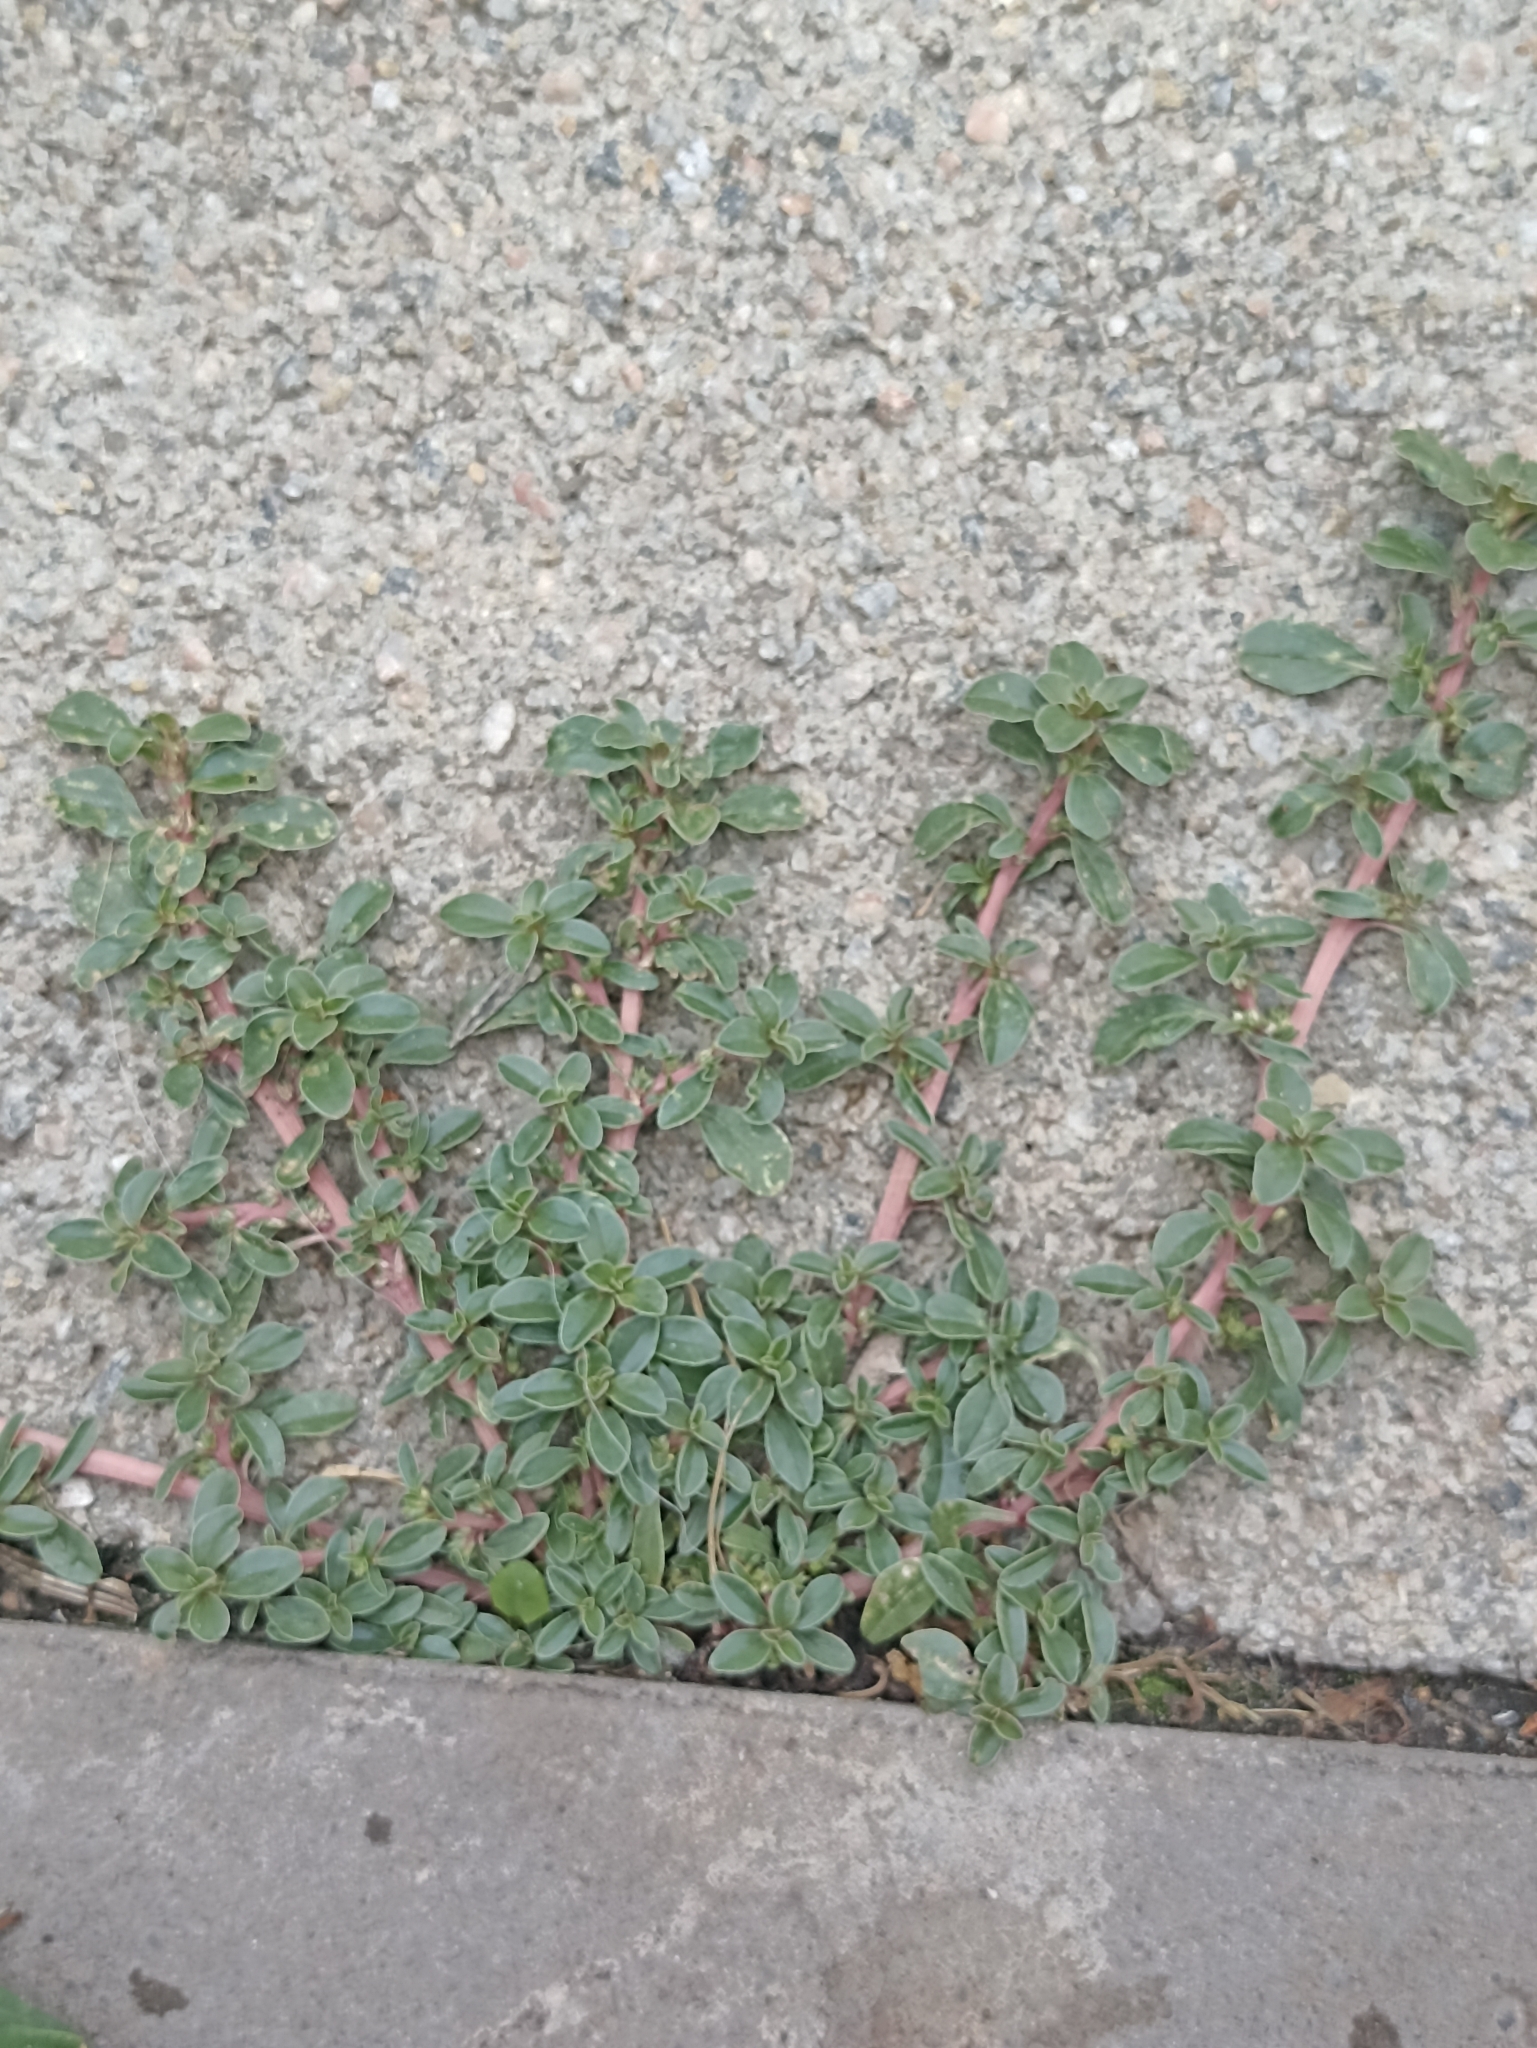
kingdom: Plantae
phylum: Tracheophyta
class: Magnoliopsida
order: Caryophyllales
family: Amaranthaceae
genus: Amaranthus
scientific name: Amaranthus blitoides
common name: Prostrate pigweed
